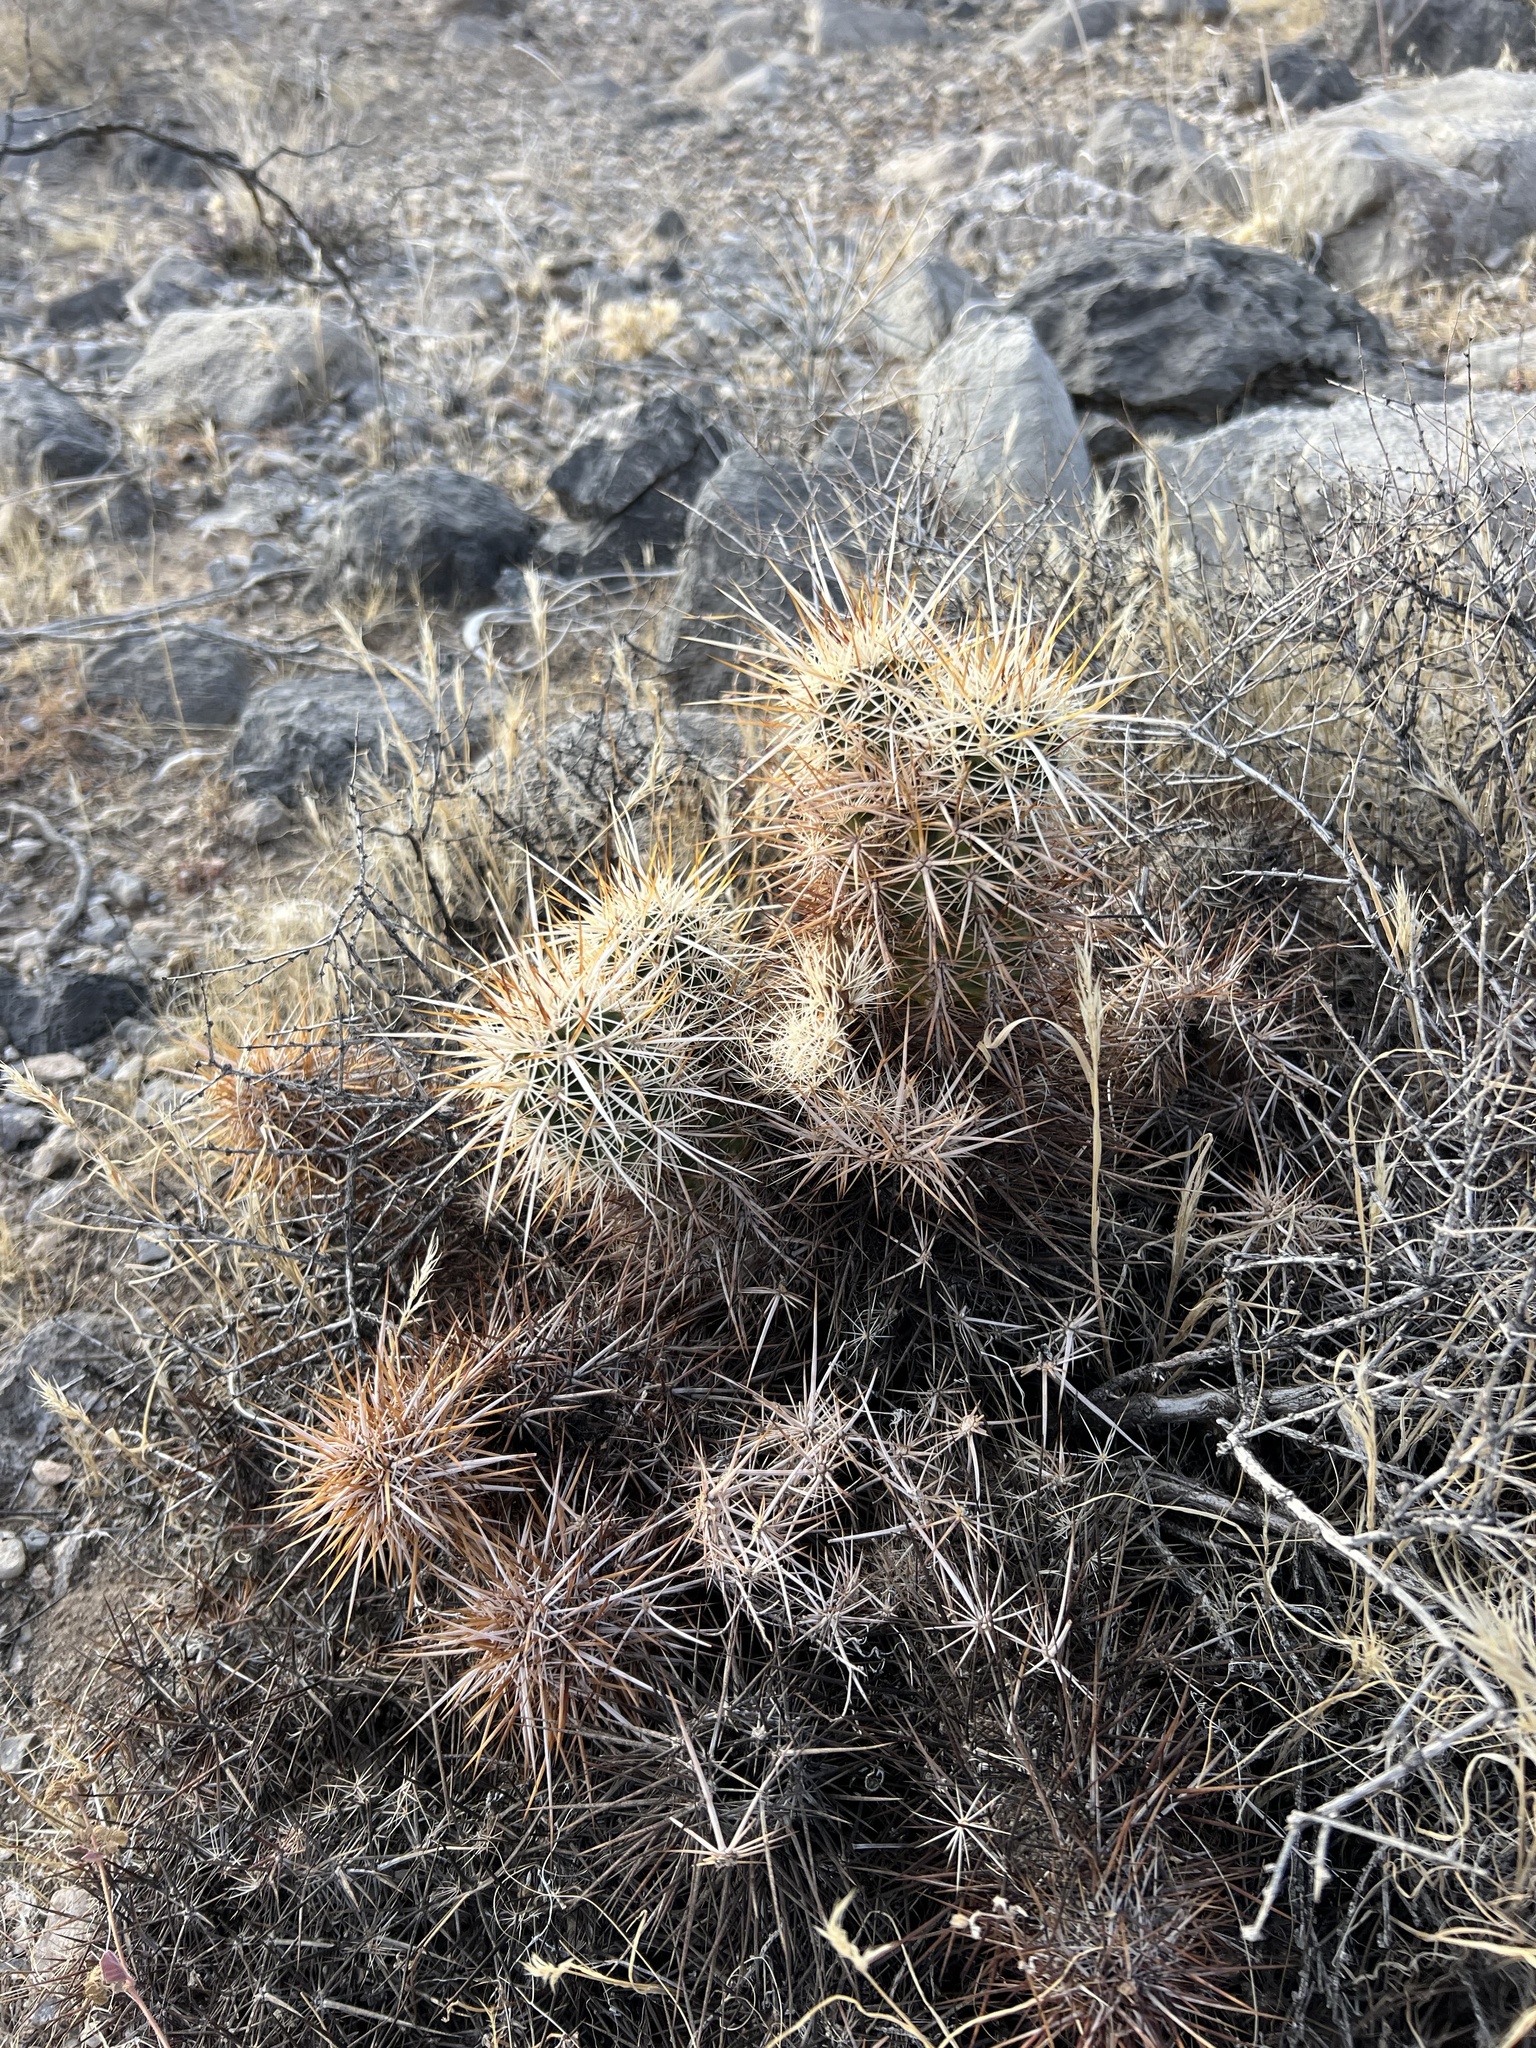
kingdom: Plantae
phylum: Tracheophyta
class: Magnoliopsida
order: Caryophyllales
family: Cactaceae
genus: Echinocereus
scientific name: Echinocereus engelmannii
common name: Engelmann's hedgehog cactus
